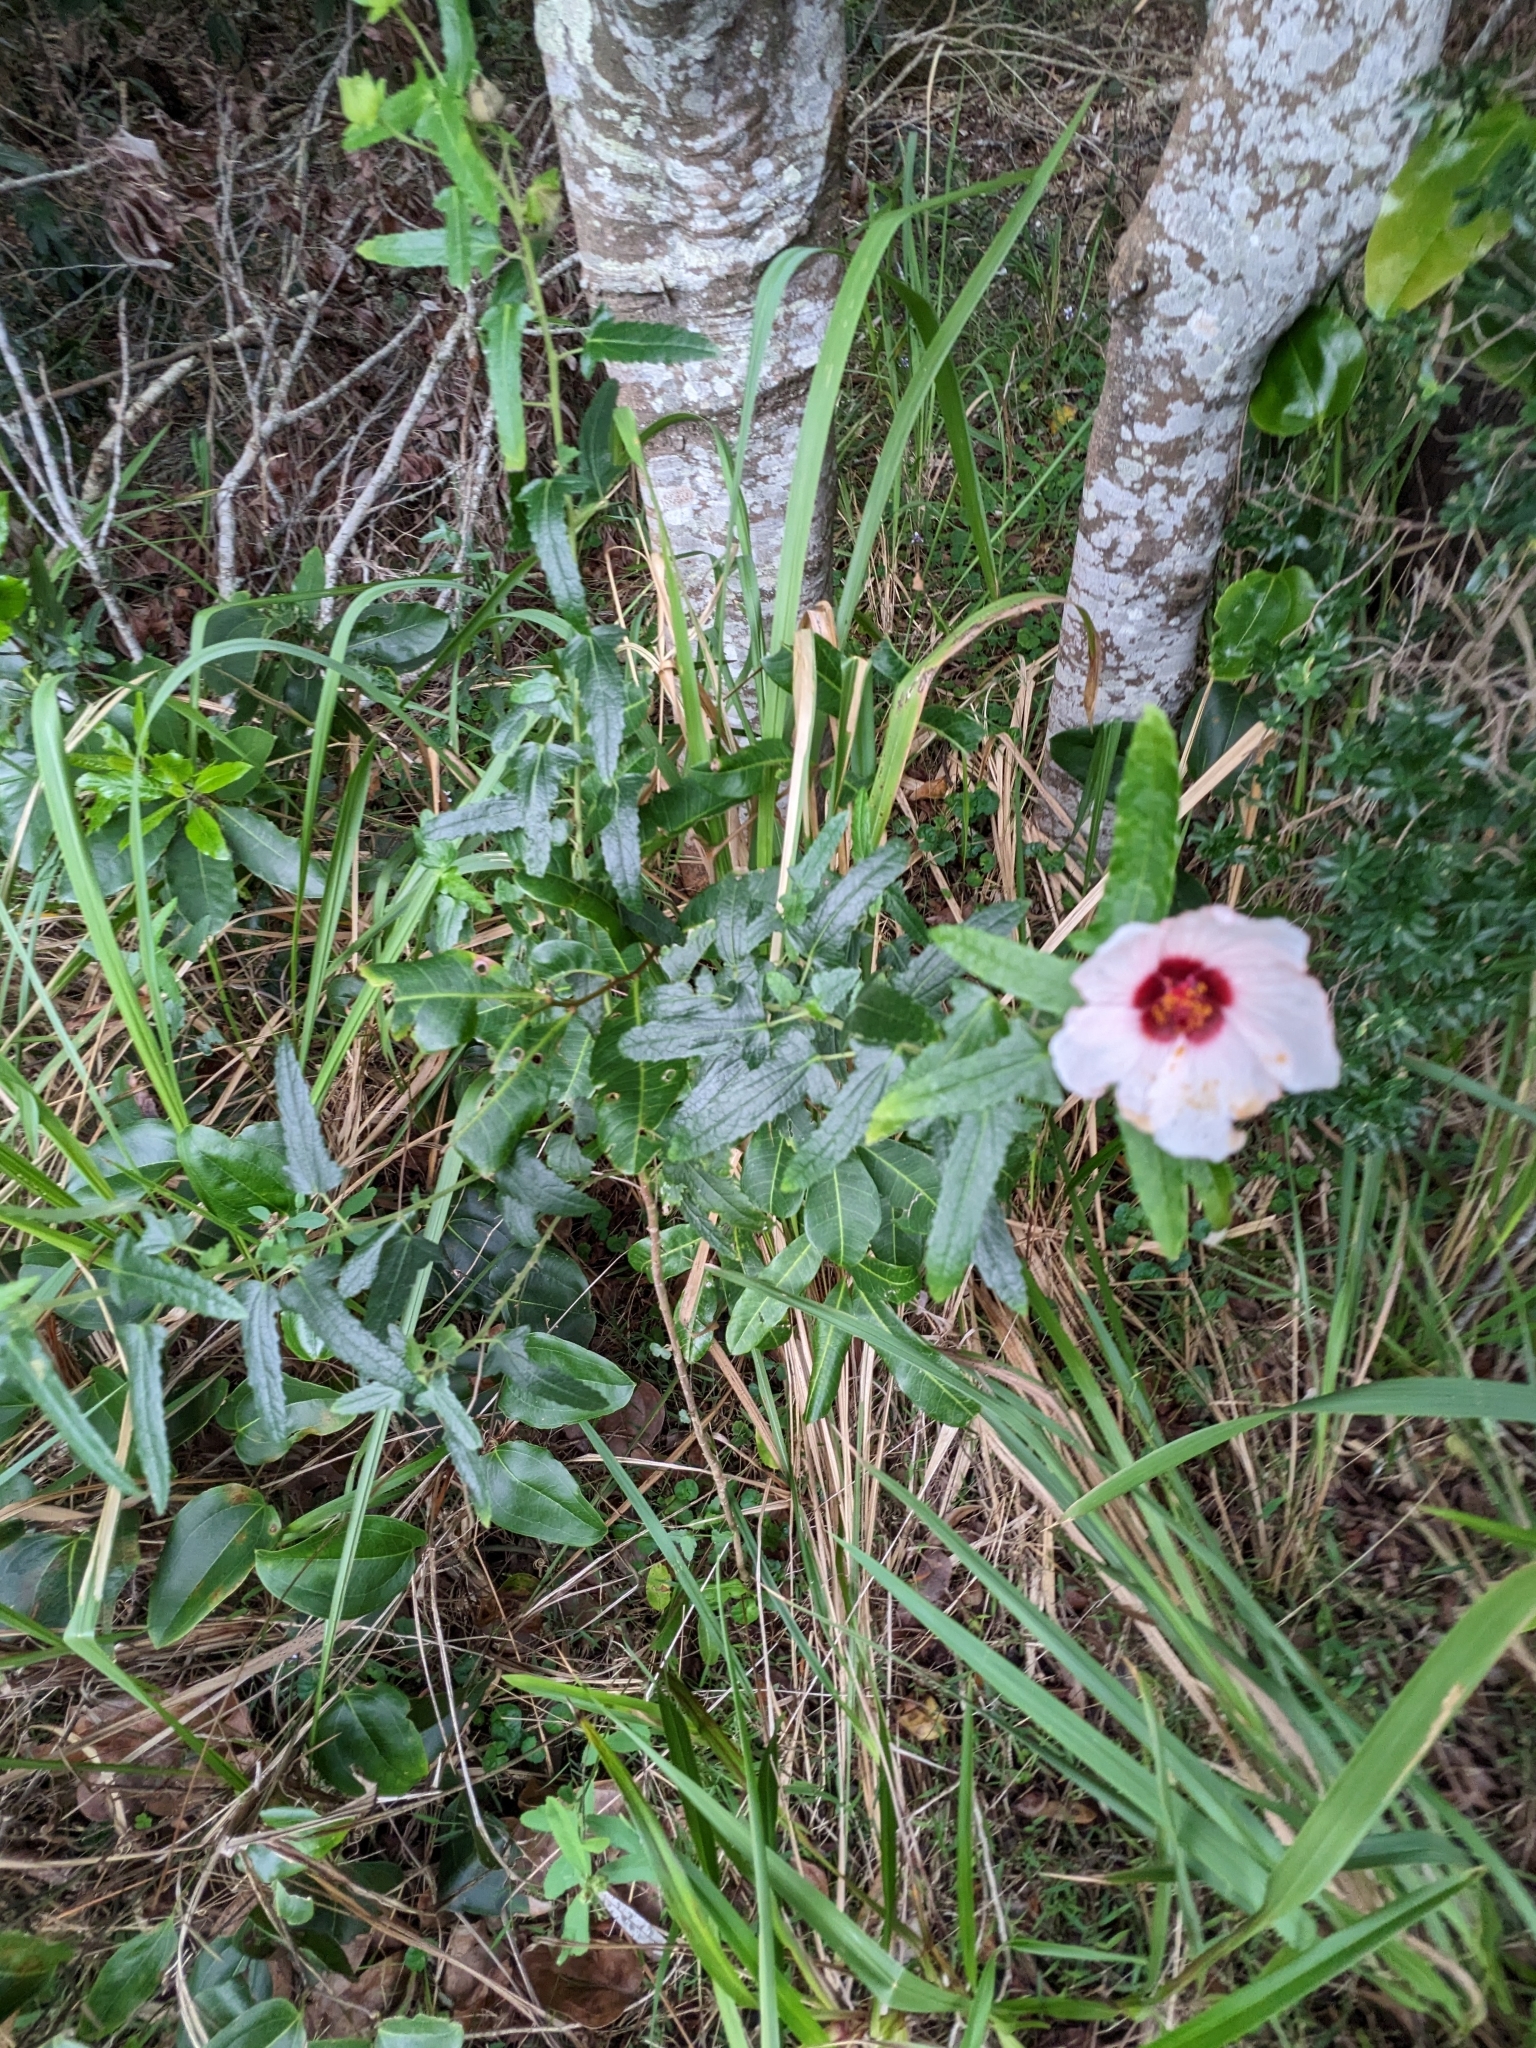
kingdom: Plantae
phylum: Tracheophyta
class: Magnoliopsida
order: Malvales
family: Malvaceae
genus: Pavonia
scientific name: Pavonia hastata
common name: Spearleaf swampmallow
